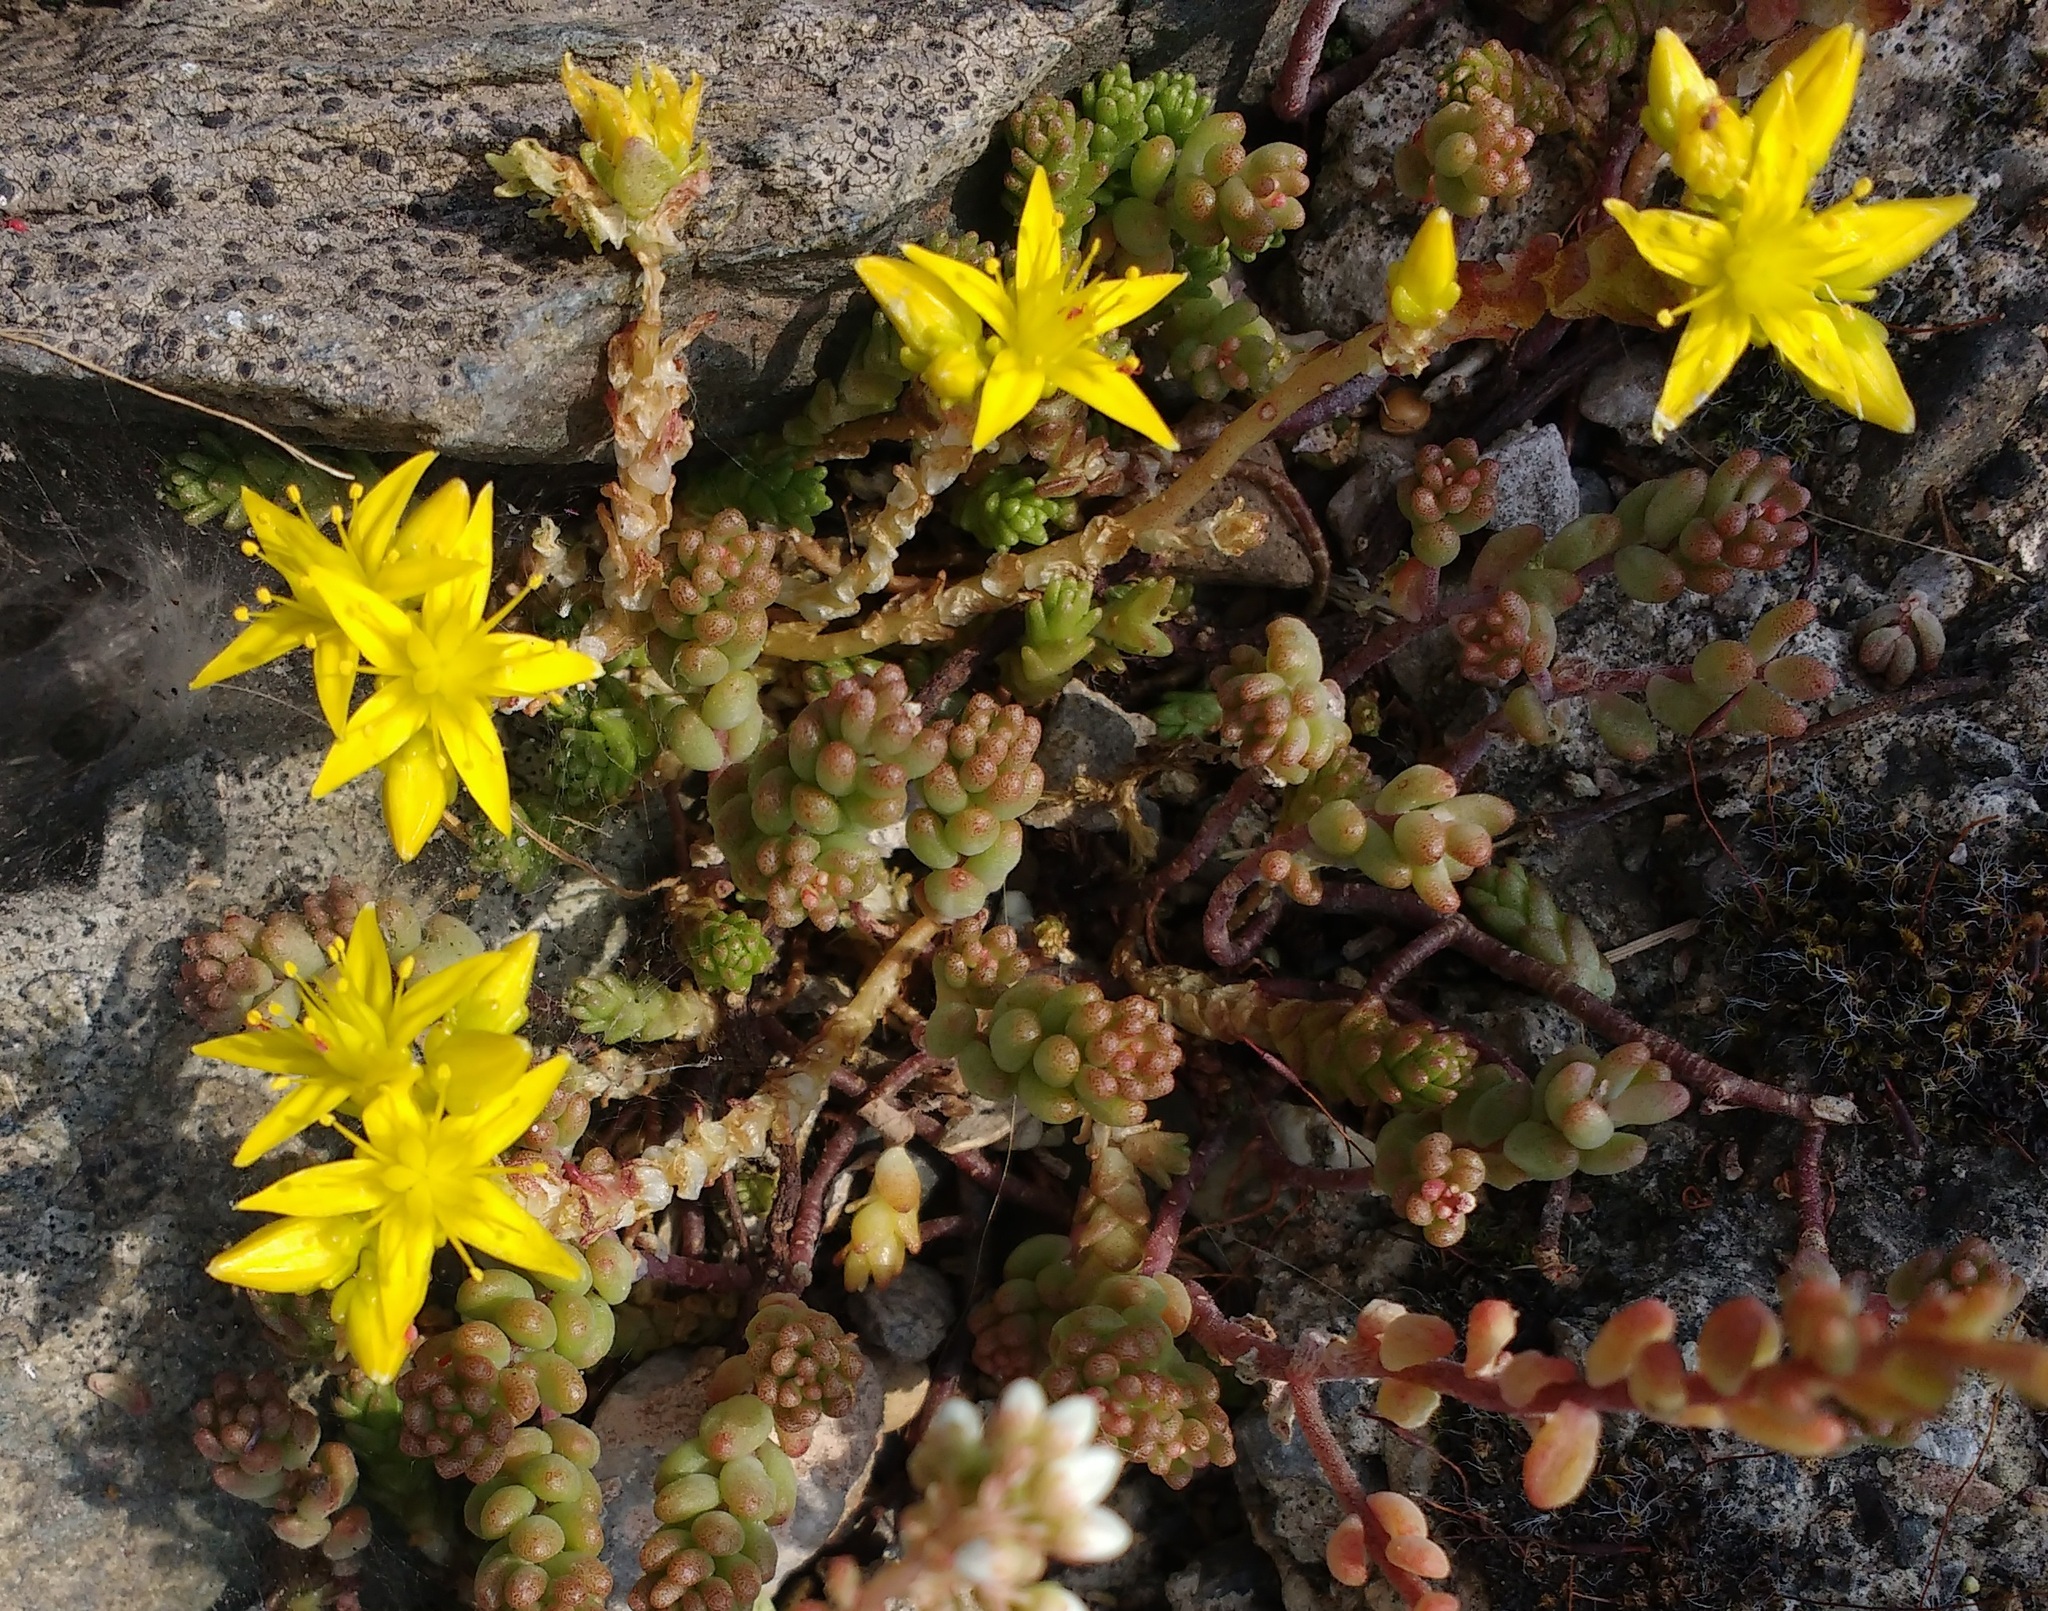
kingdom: Plantae
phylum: Tracheophyta
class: Magnoliopsida
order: Saxifragales
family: Crassulaceae
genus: Sedum
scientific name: Sedum acre
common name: Biting stonecrop
